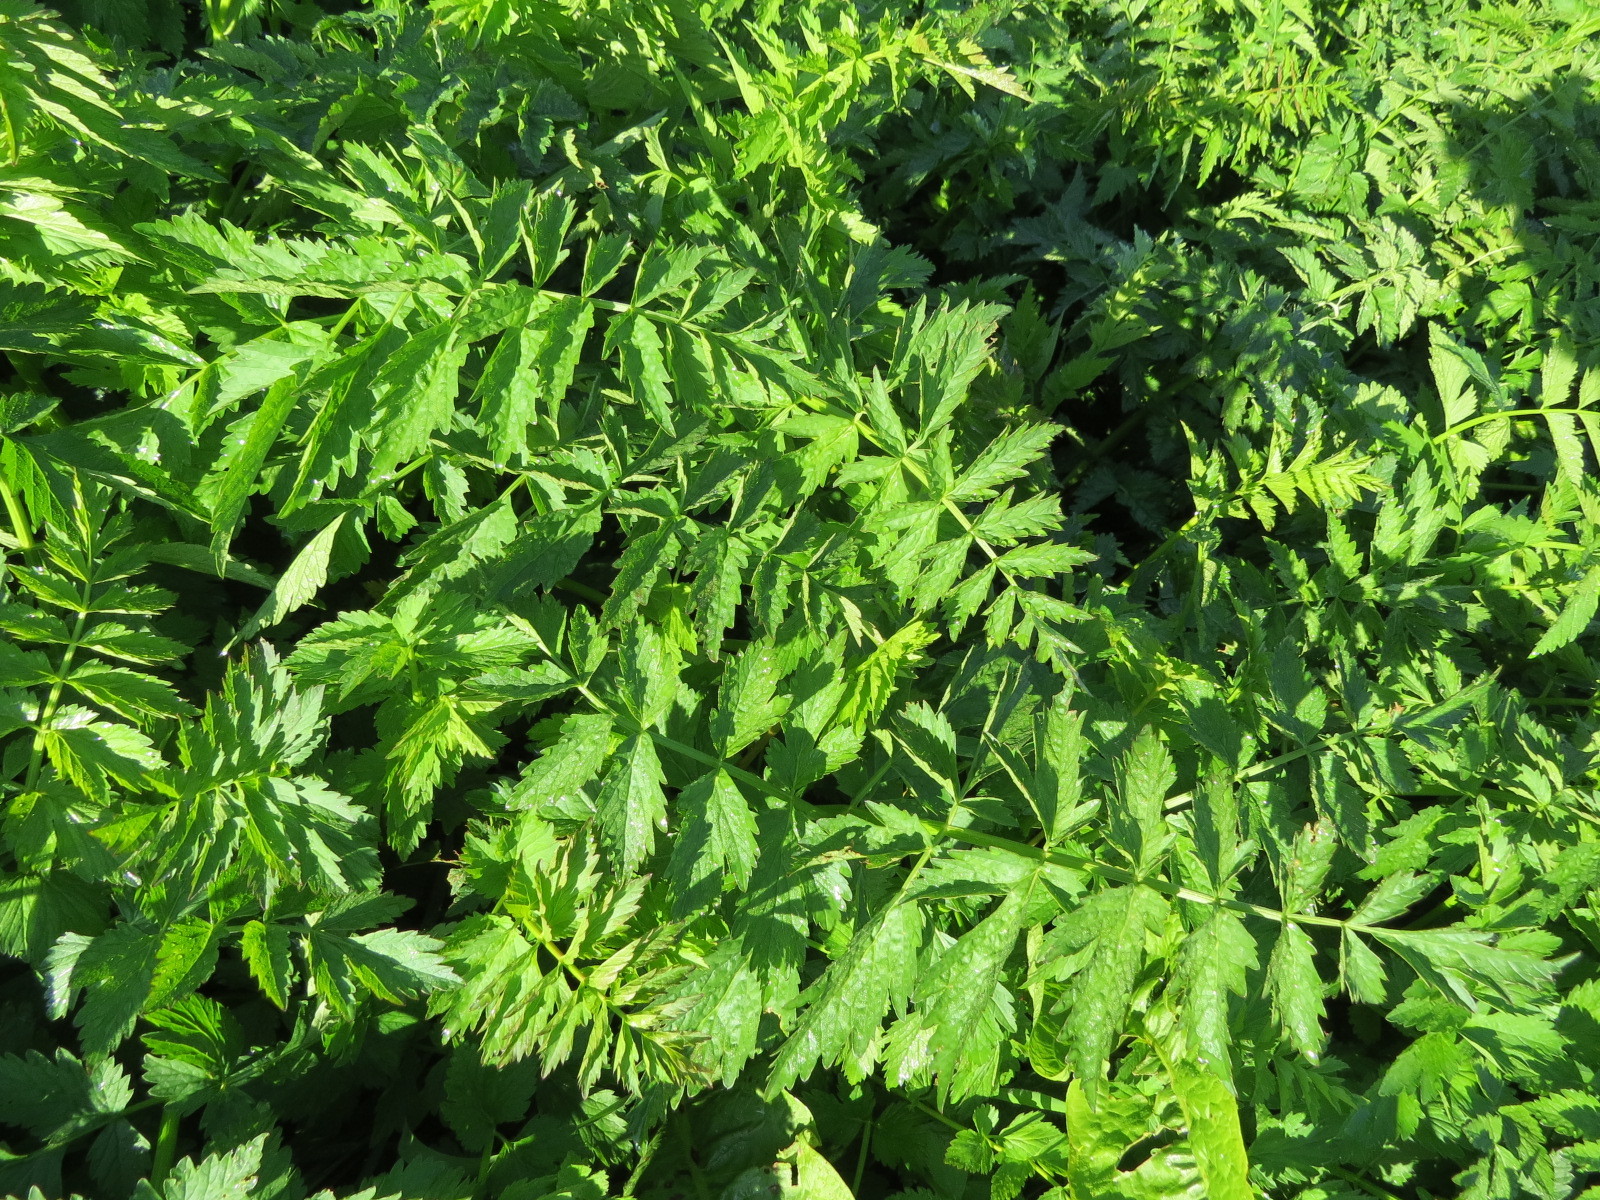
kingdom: Plantae
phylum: Tracheophyta
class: Magnoliopsida
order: Apiales
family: Apiaceae
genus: Oenanthe
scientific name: Oenanthe sarmentosa
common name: American water-parsley
